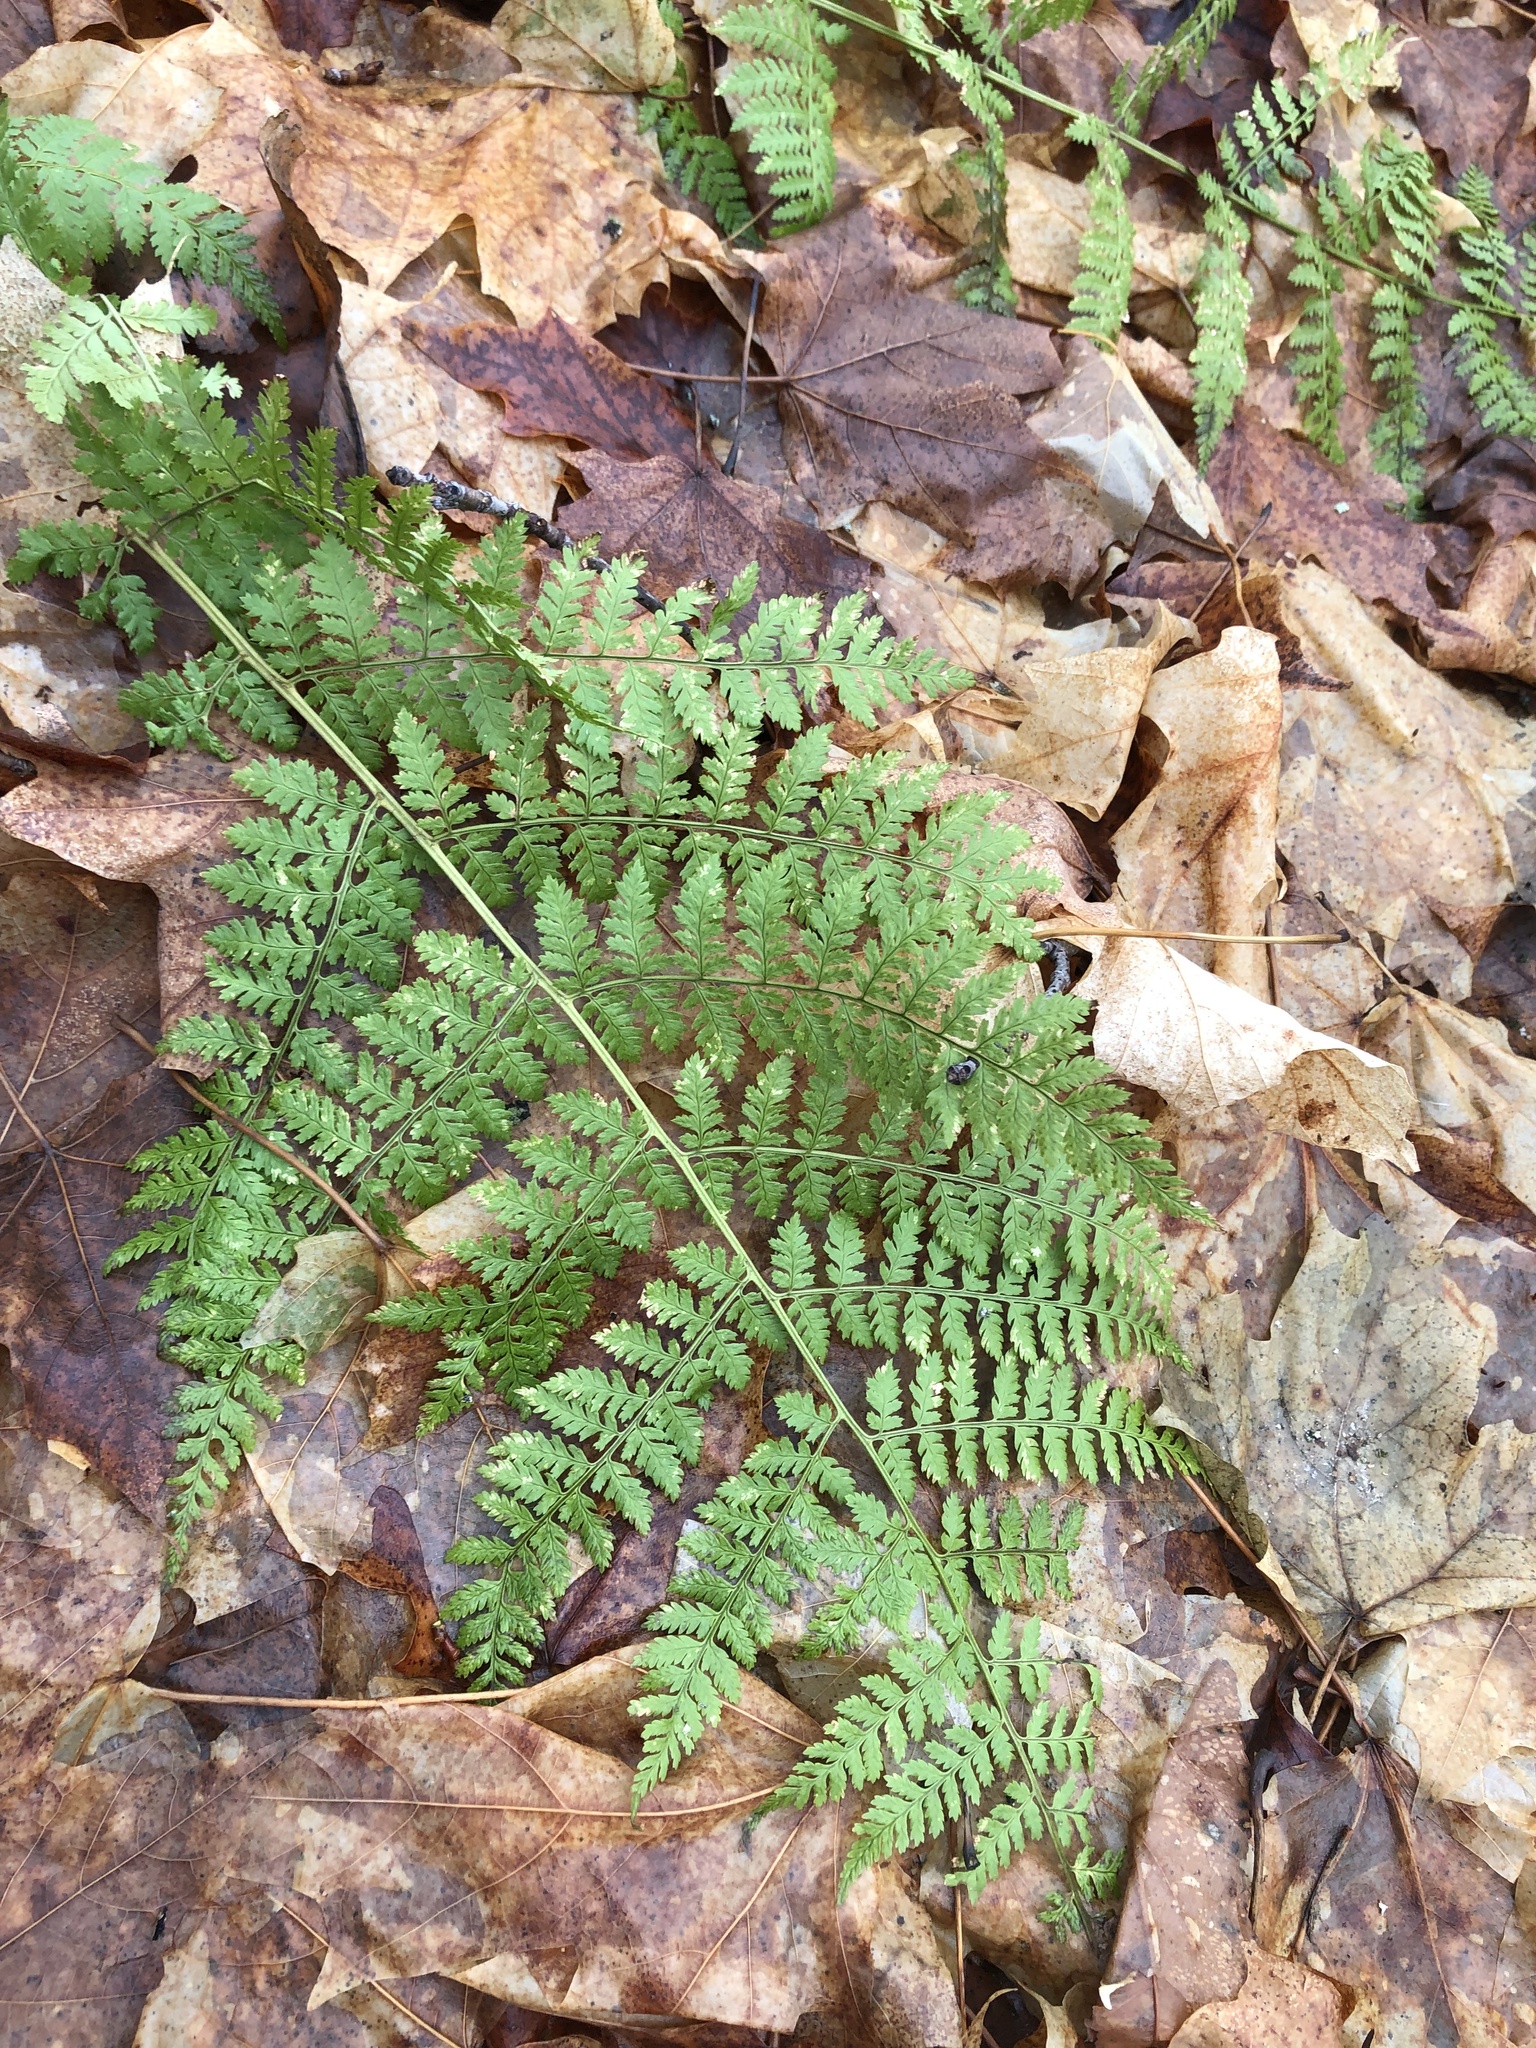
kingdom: Plantae
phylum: Tracheophyta
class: Polypodiopsida
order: Polypodiales
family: Dryopteridaceae
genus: Dryopteris
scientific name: Dryopteris intermedia
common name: Evergreen wood fern
